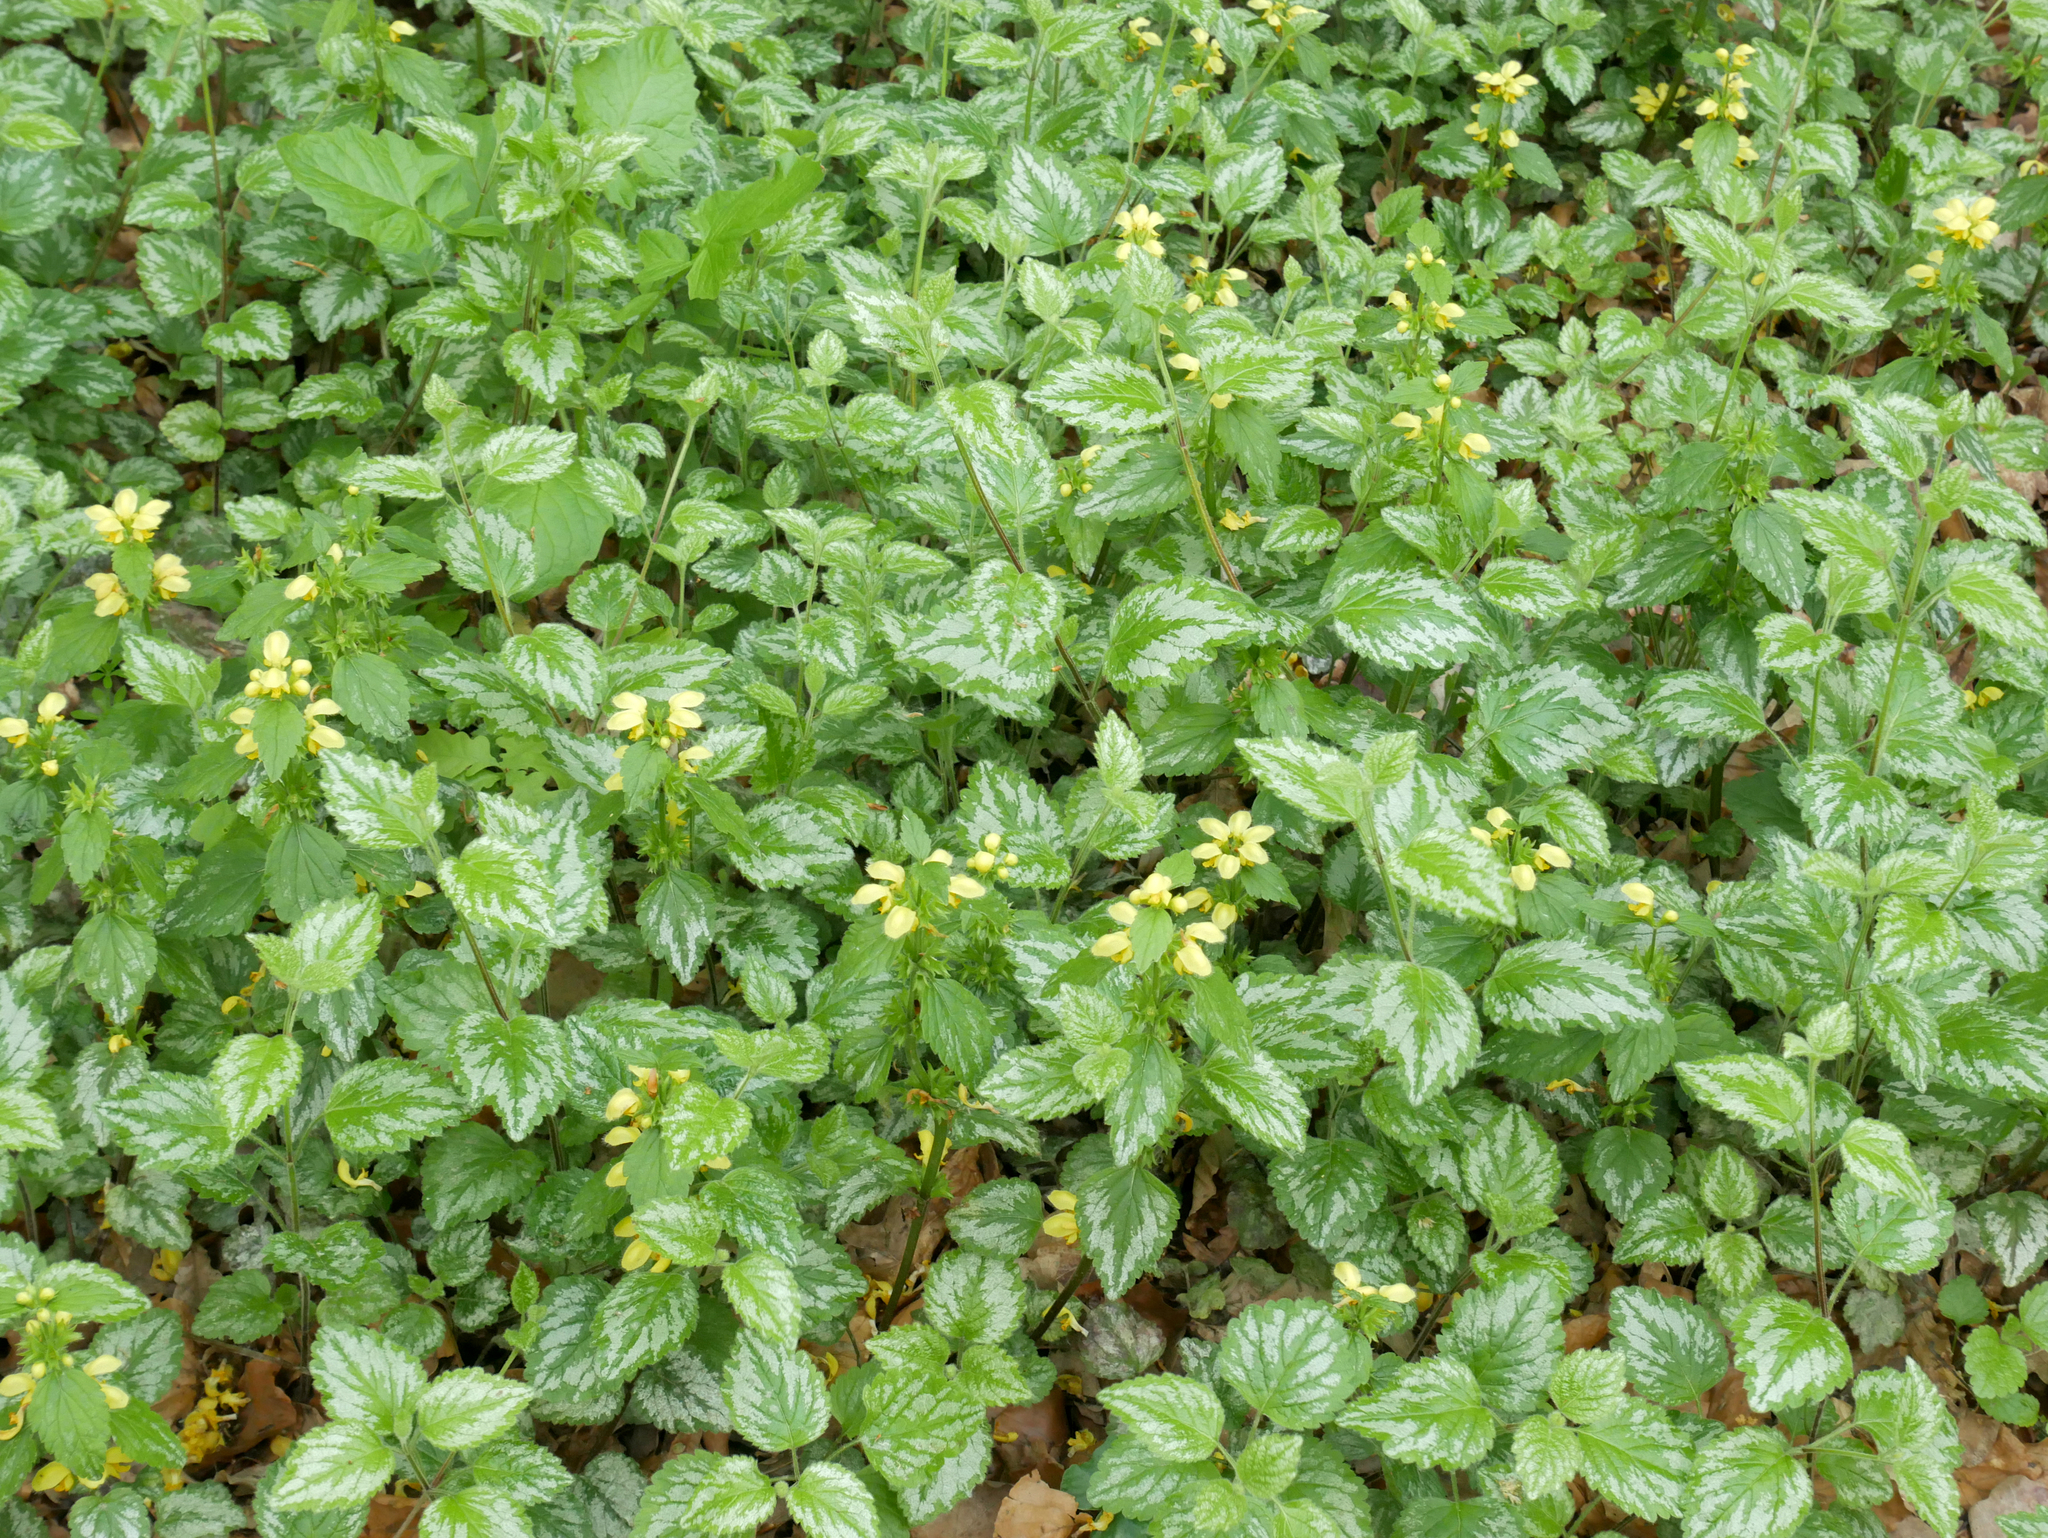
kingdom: Plantae
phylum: Tracheophyta
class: Magnoliopsida
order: Lamiales
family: Lamiaceae
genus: Lamium
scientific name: Lamium galeobdolon
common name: Yellow archangel
